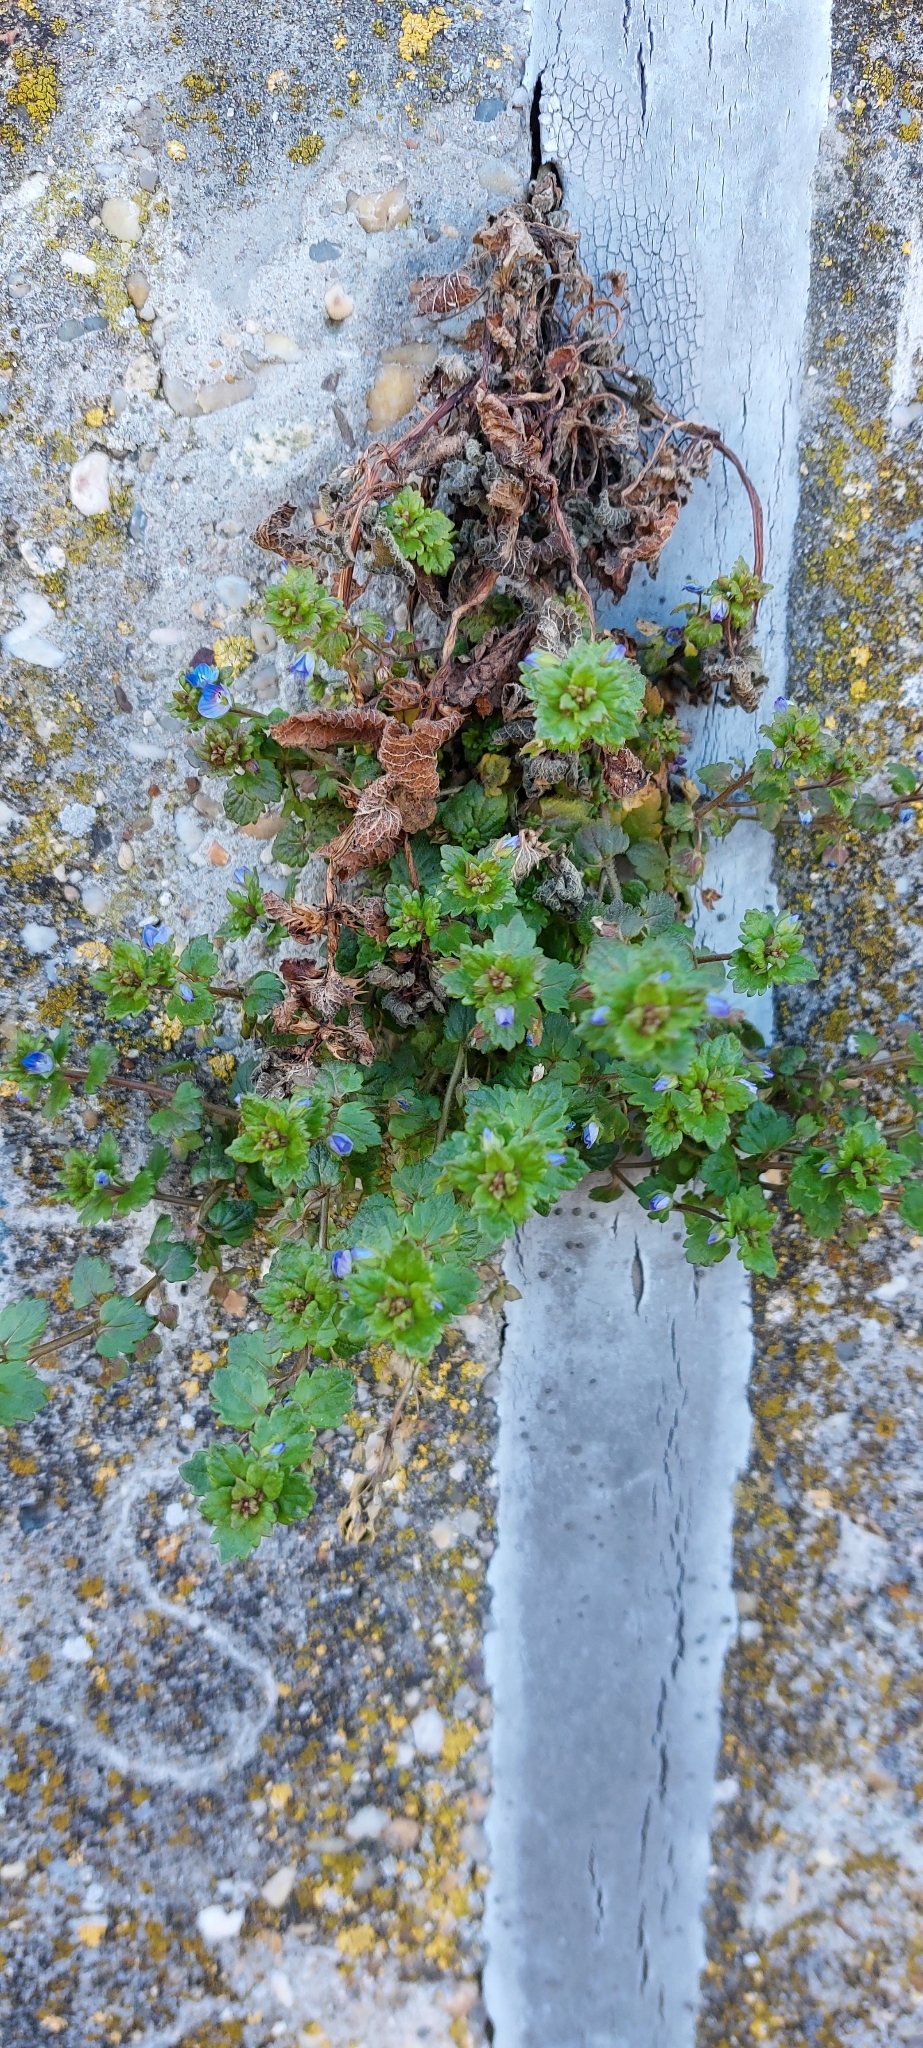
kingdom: Plantae
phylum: Tracheophyta
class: Magnoliopsida
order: Lamiales
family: Plantaginaceae
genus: Veronica
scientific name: Veronica persica
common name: Common field-speedwell
